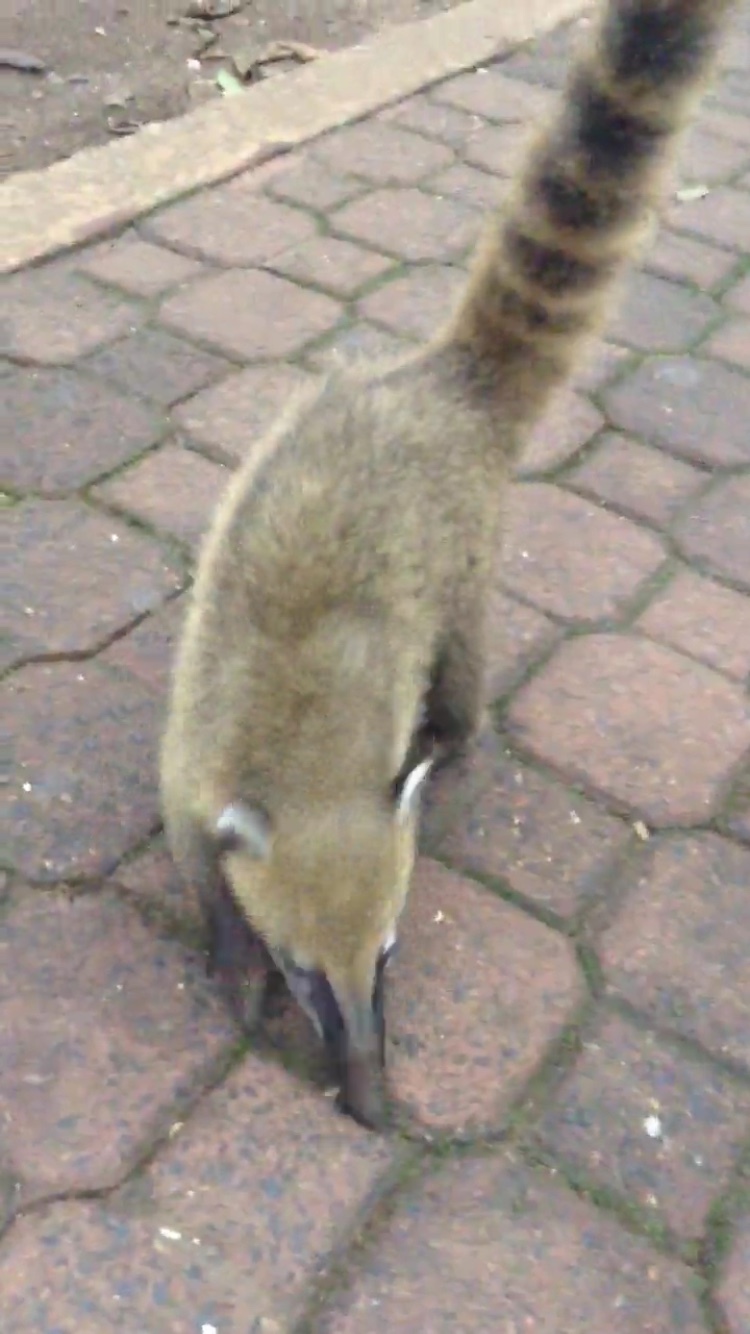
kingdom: Animalia
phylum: Chordata
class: Mammalia
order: Carnivora
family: Procyonidae
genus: Nasua
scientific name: Nasua nasua
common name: South american coati
